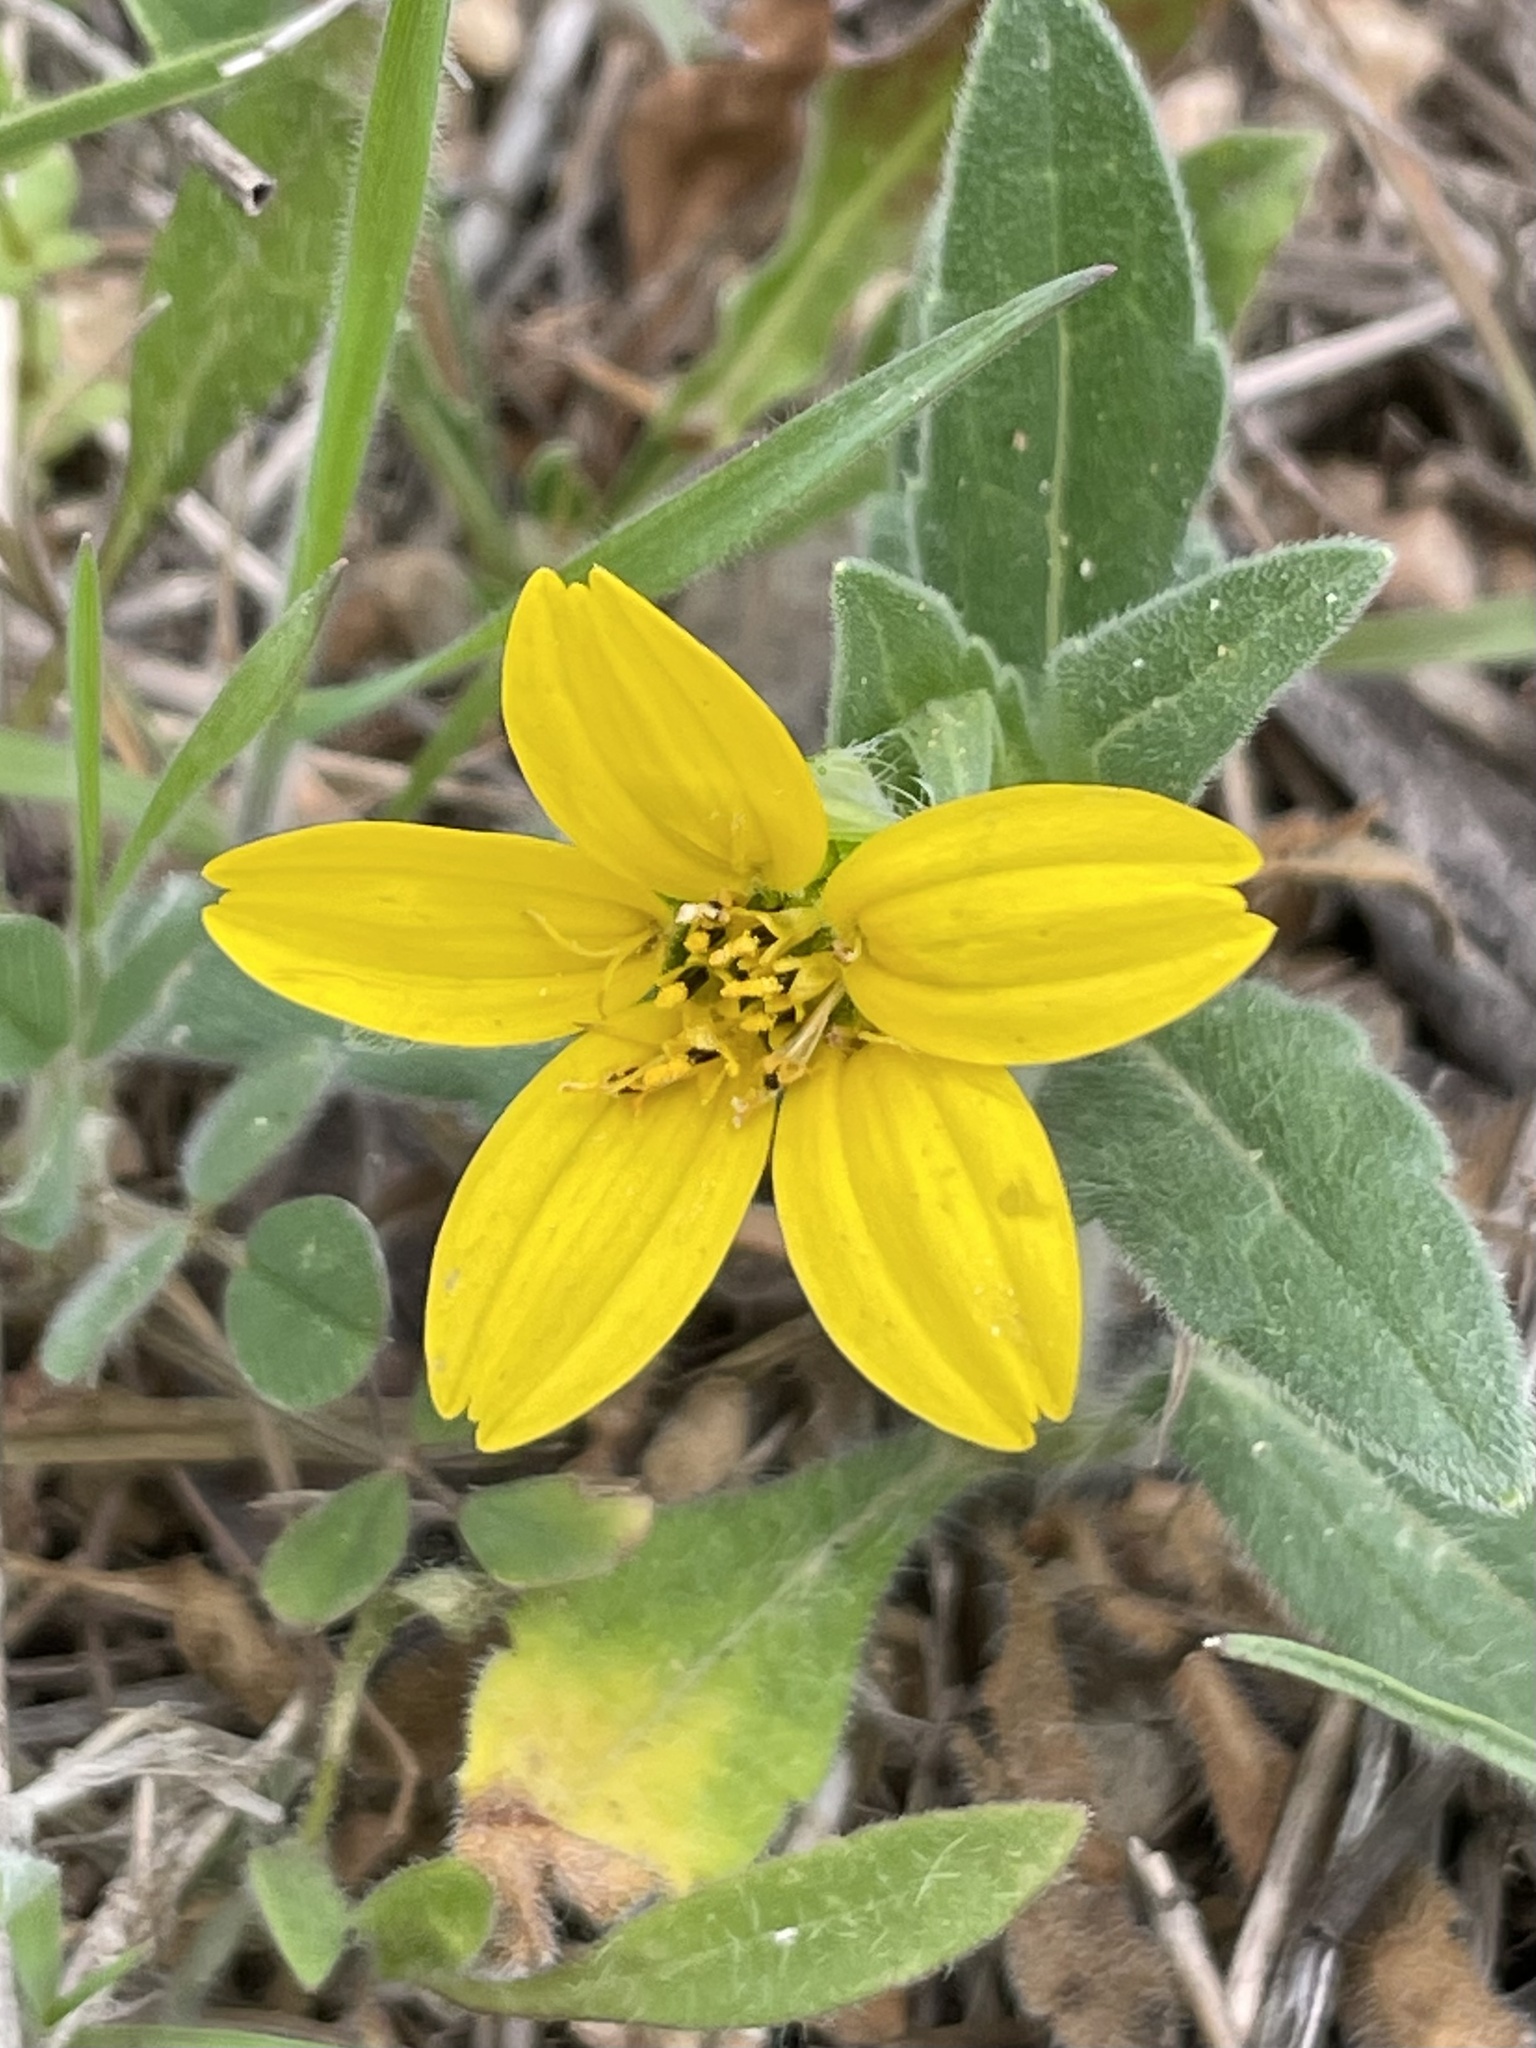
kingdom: Plantae
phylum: Tracheophyta
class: Magnoliopsida
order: Asterales
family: Asteraceae
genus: Lindheimera
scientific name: Lindheimera texana
